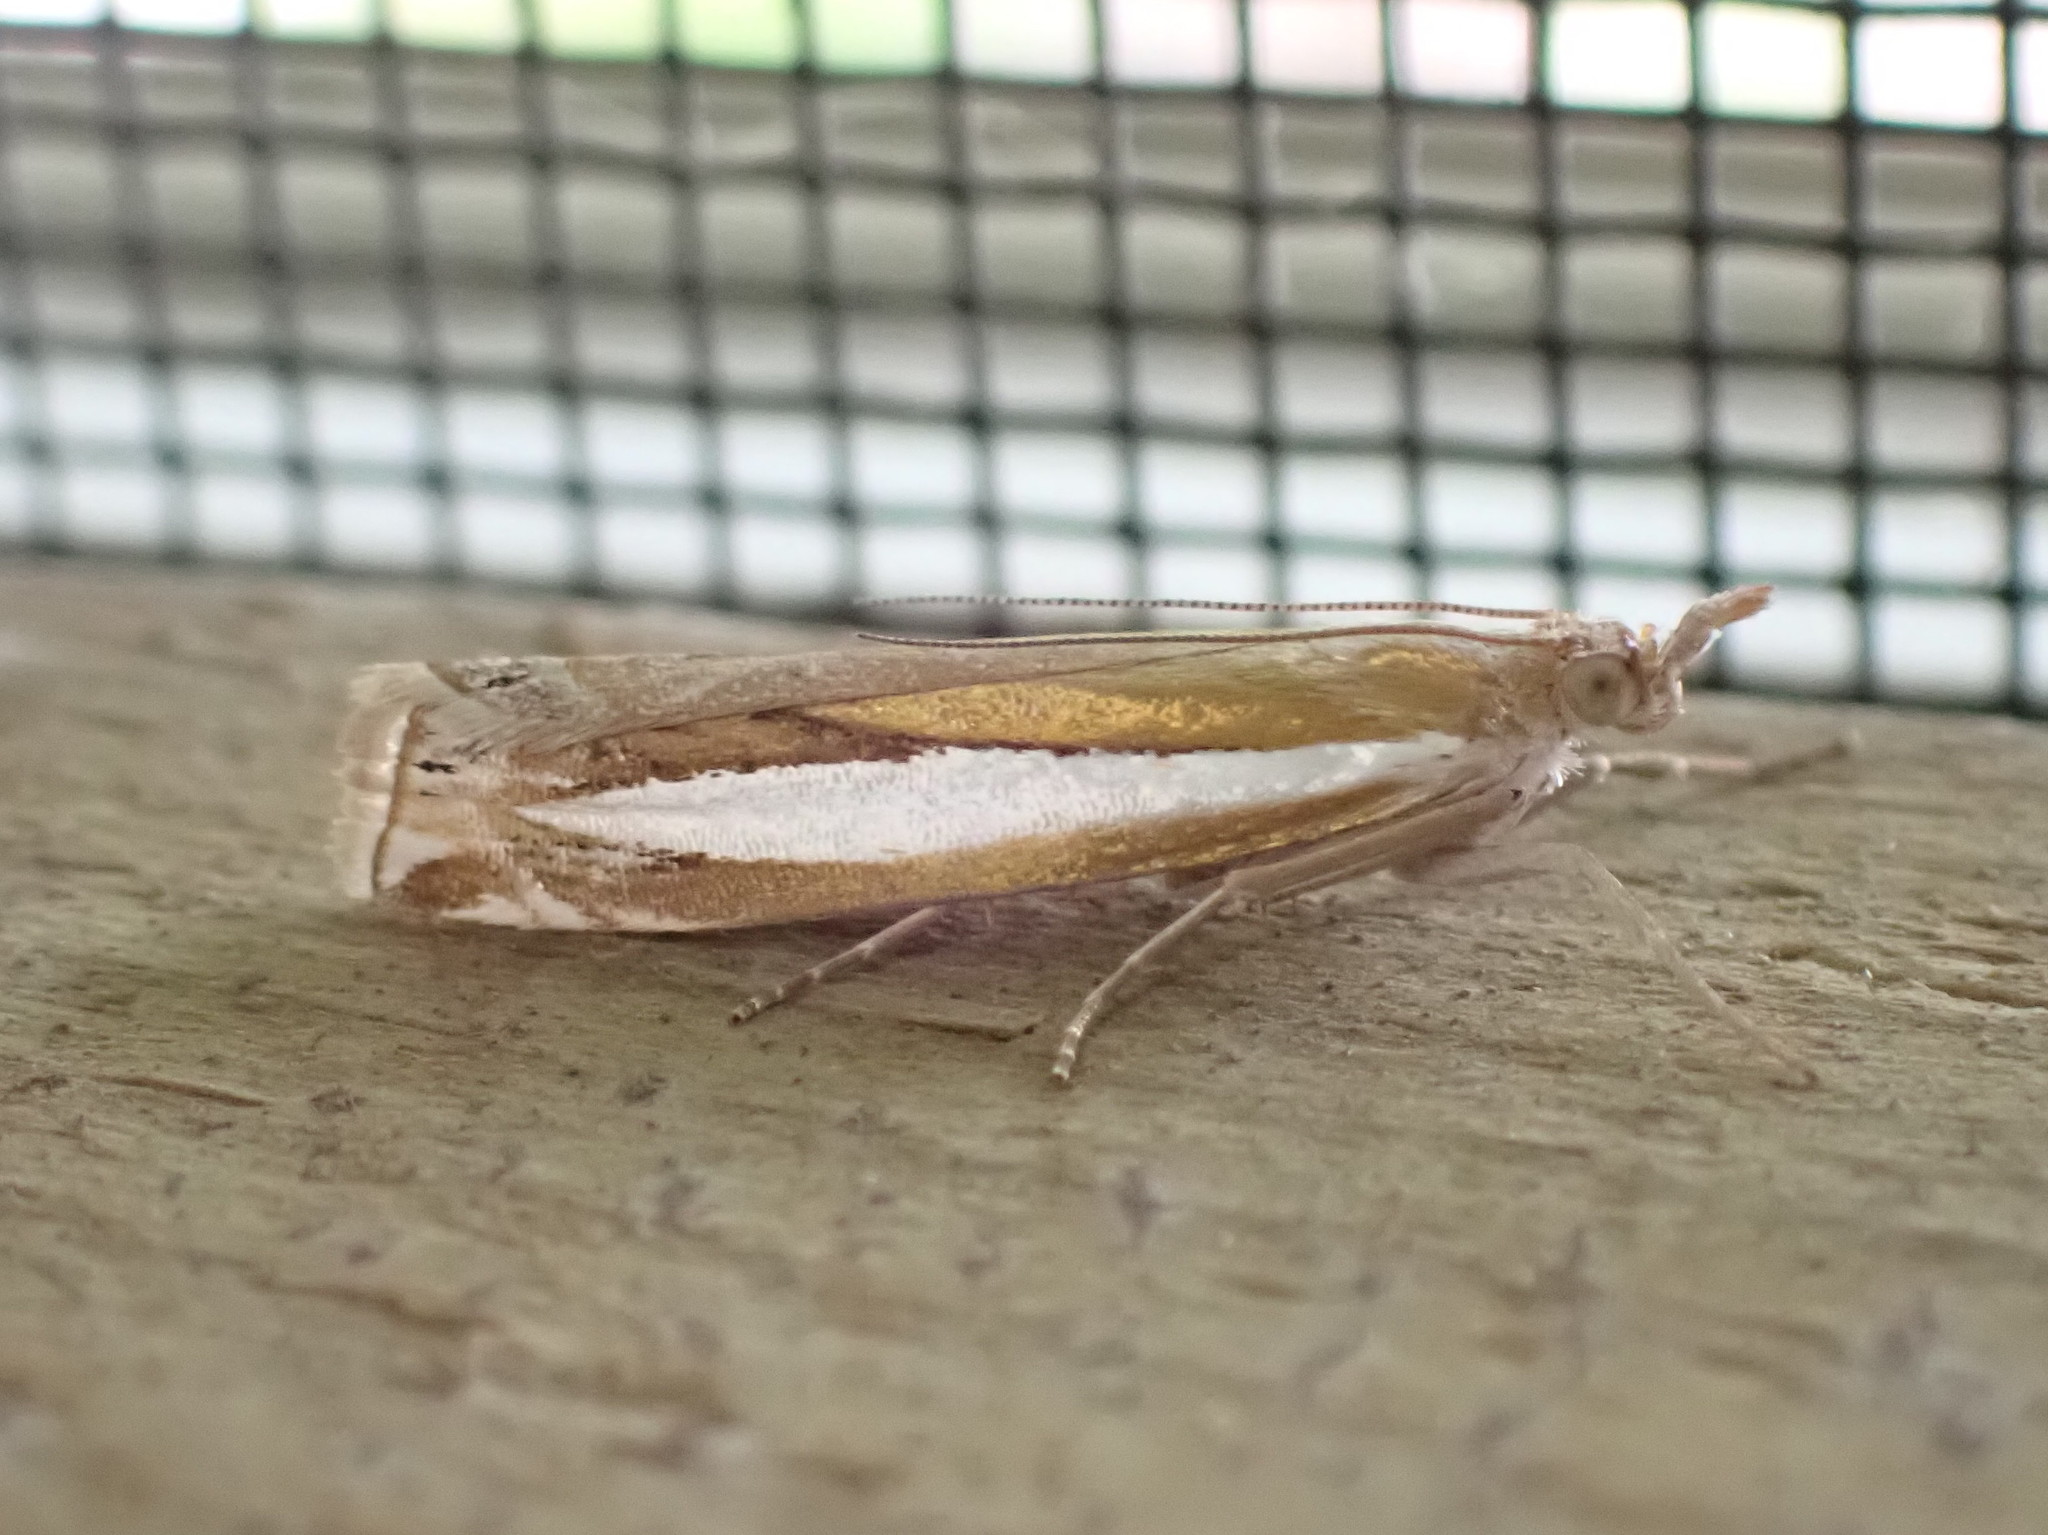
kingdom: Animalia
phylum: Arthropoda
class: Insecta
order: Lepidoptera
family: Crambidae
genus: Crambus
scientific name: Crambus praefectellus
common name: Common grass-veneer
